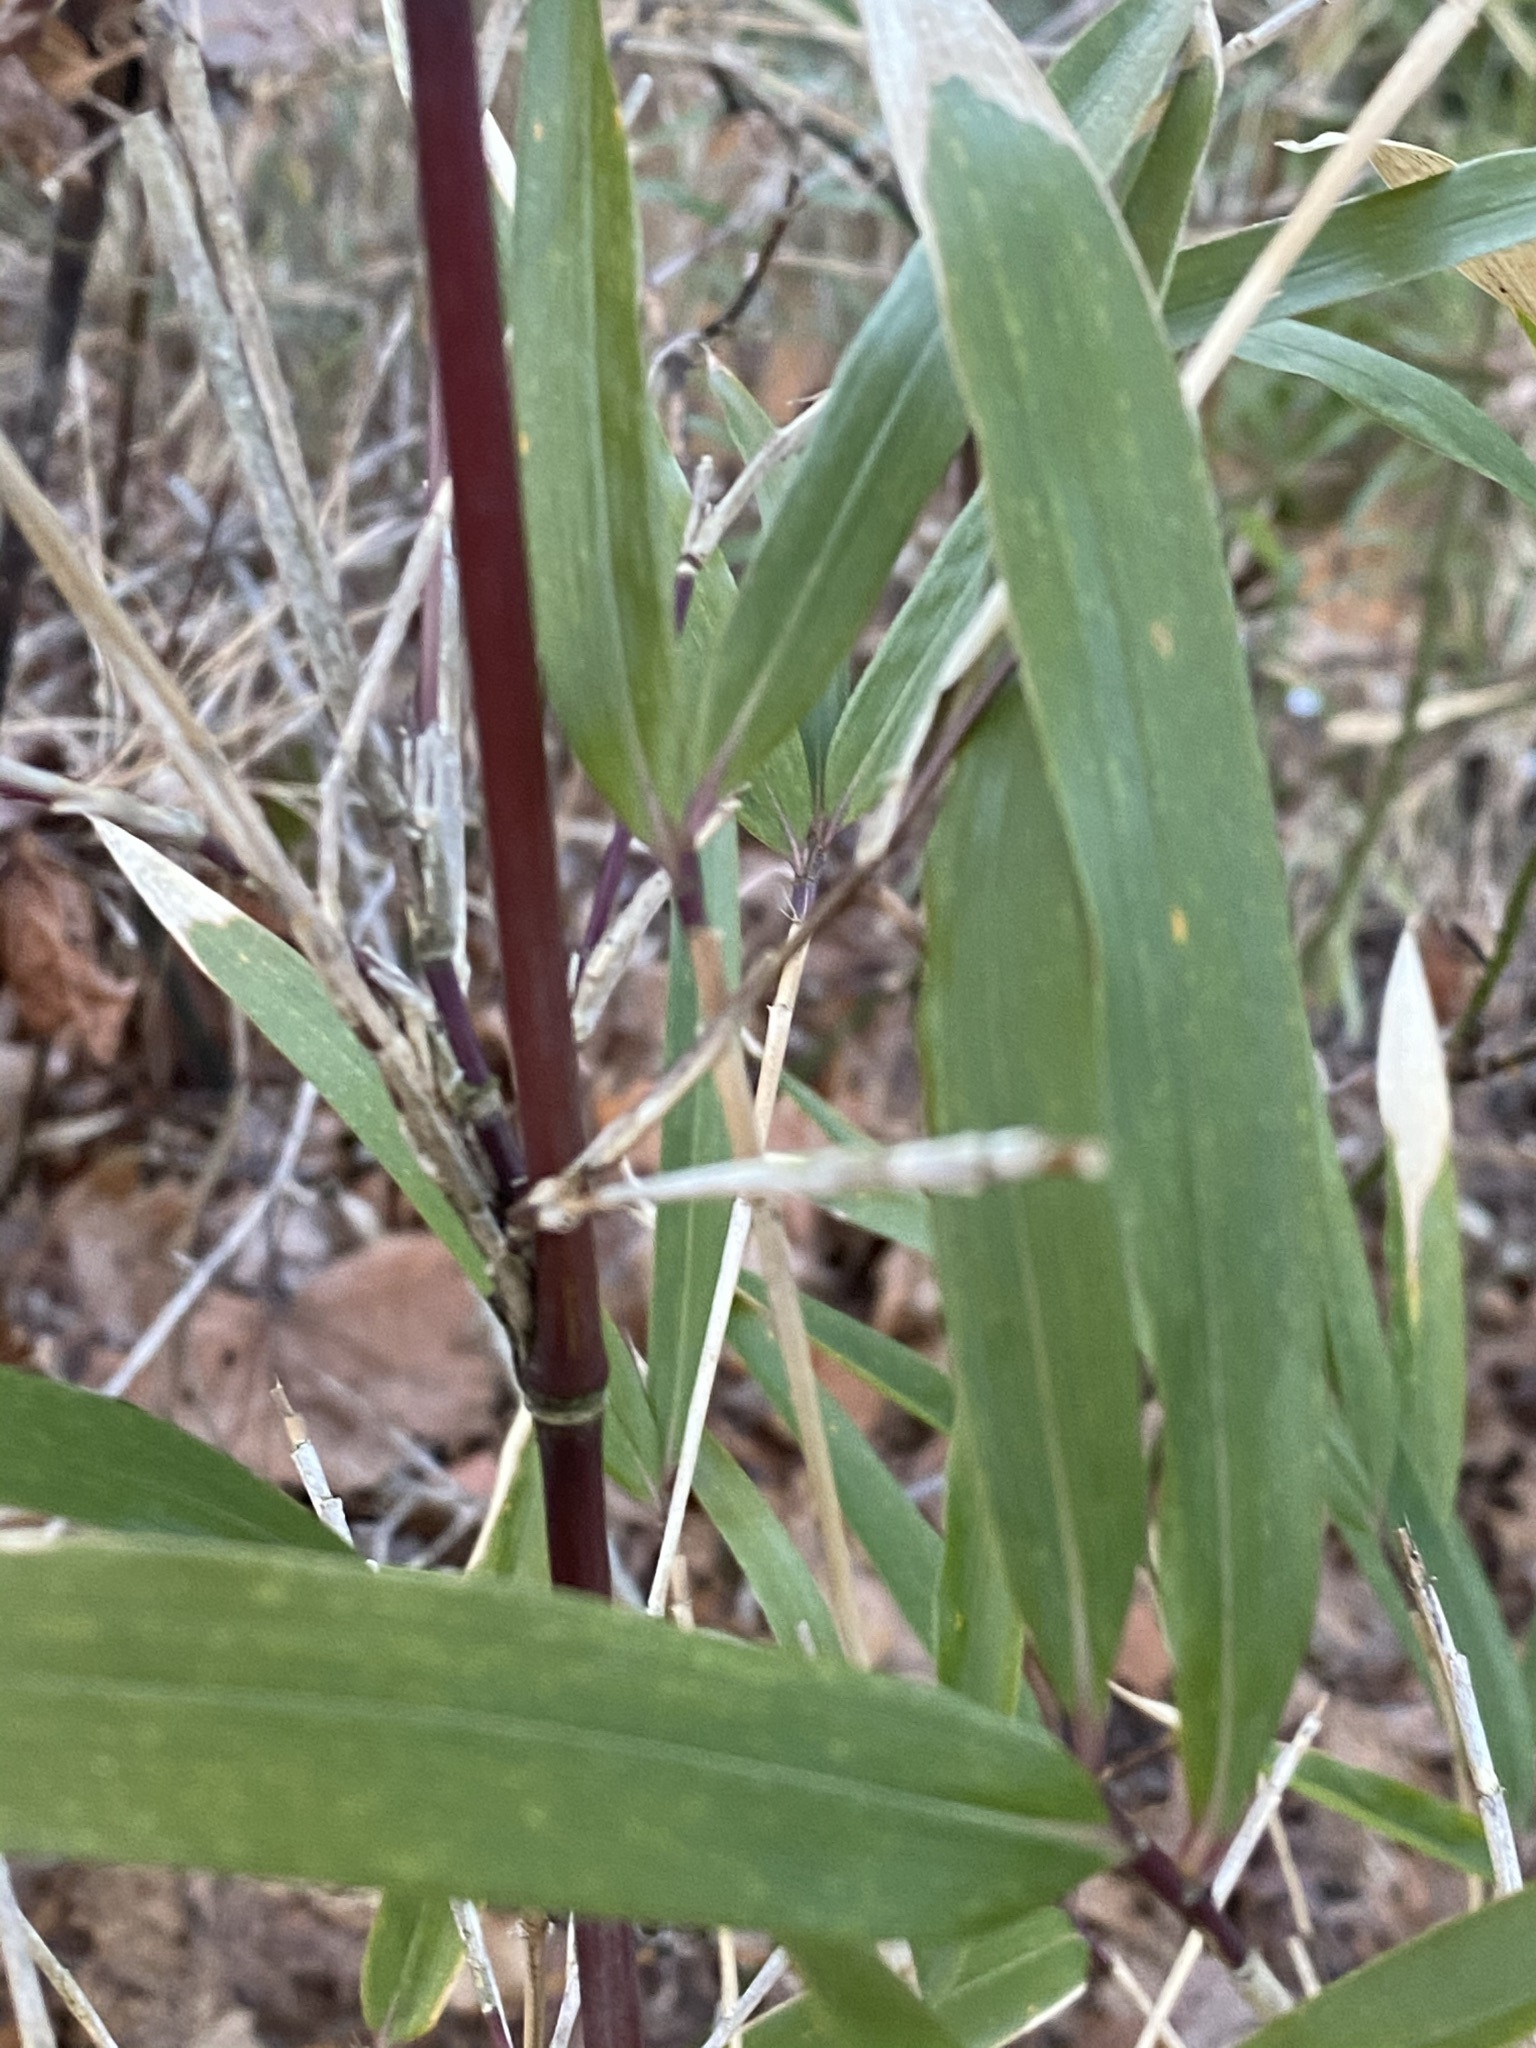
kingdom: Plantae
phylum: Tracheophyta
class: Liliopsida
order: Poales
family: Poaceae
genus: Arundinaria
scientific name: Arundinaria gigantea
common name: Giant cane
